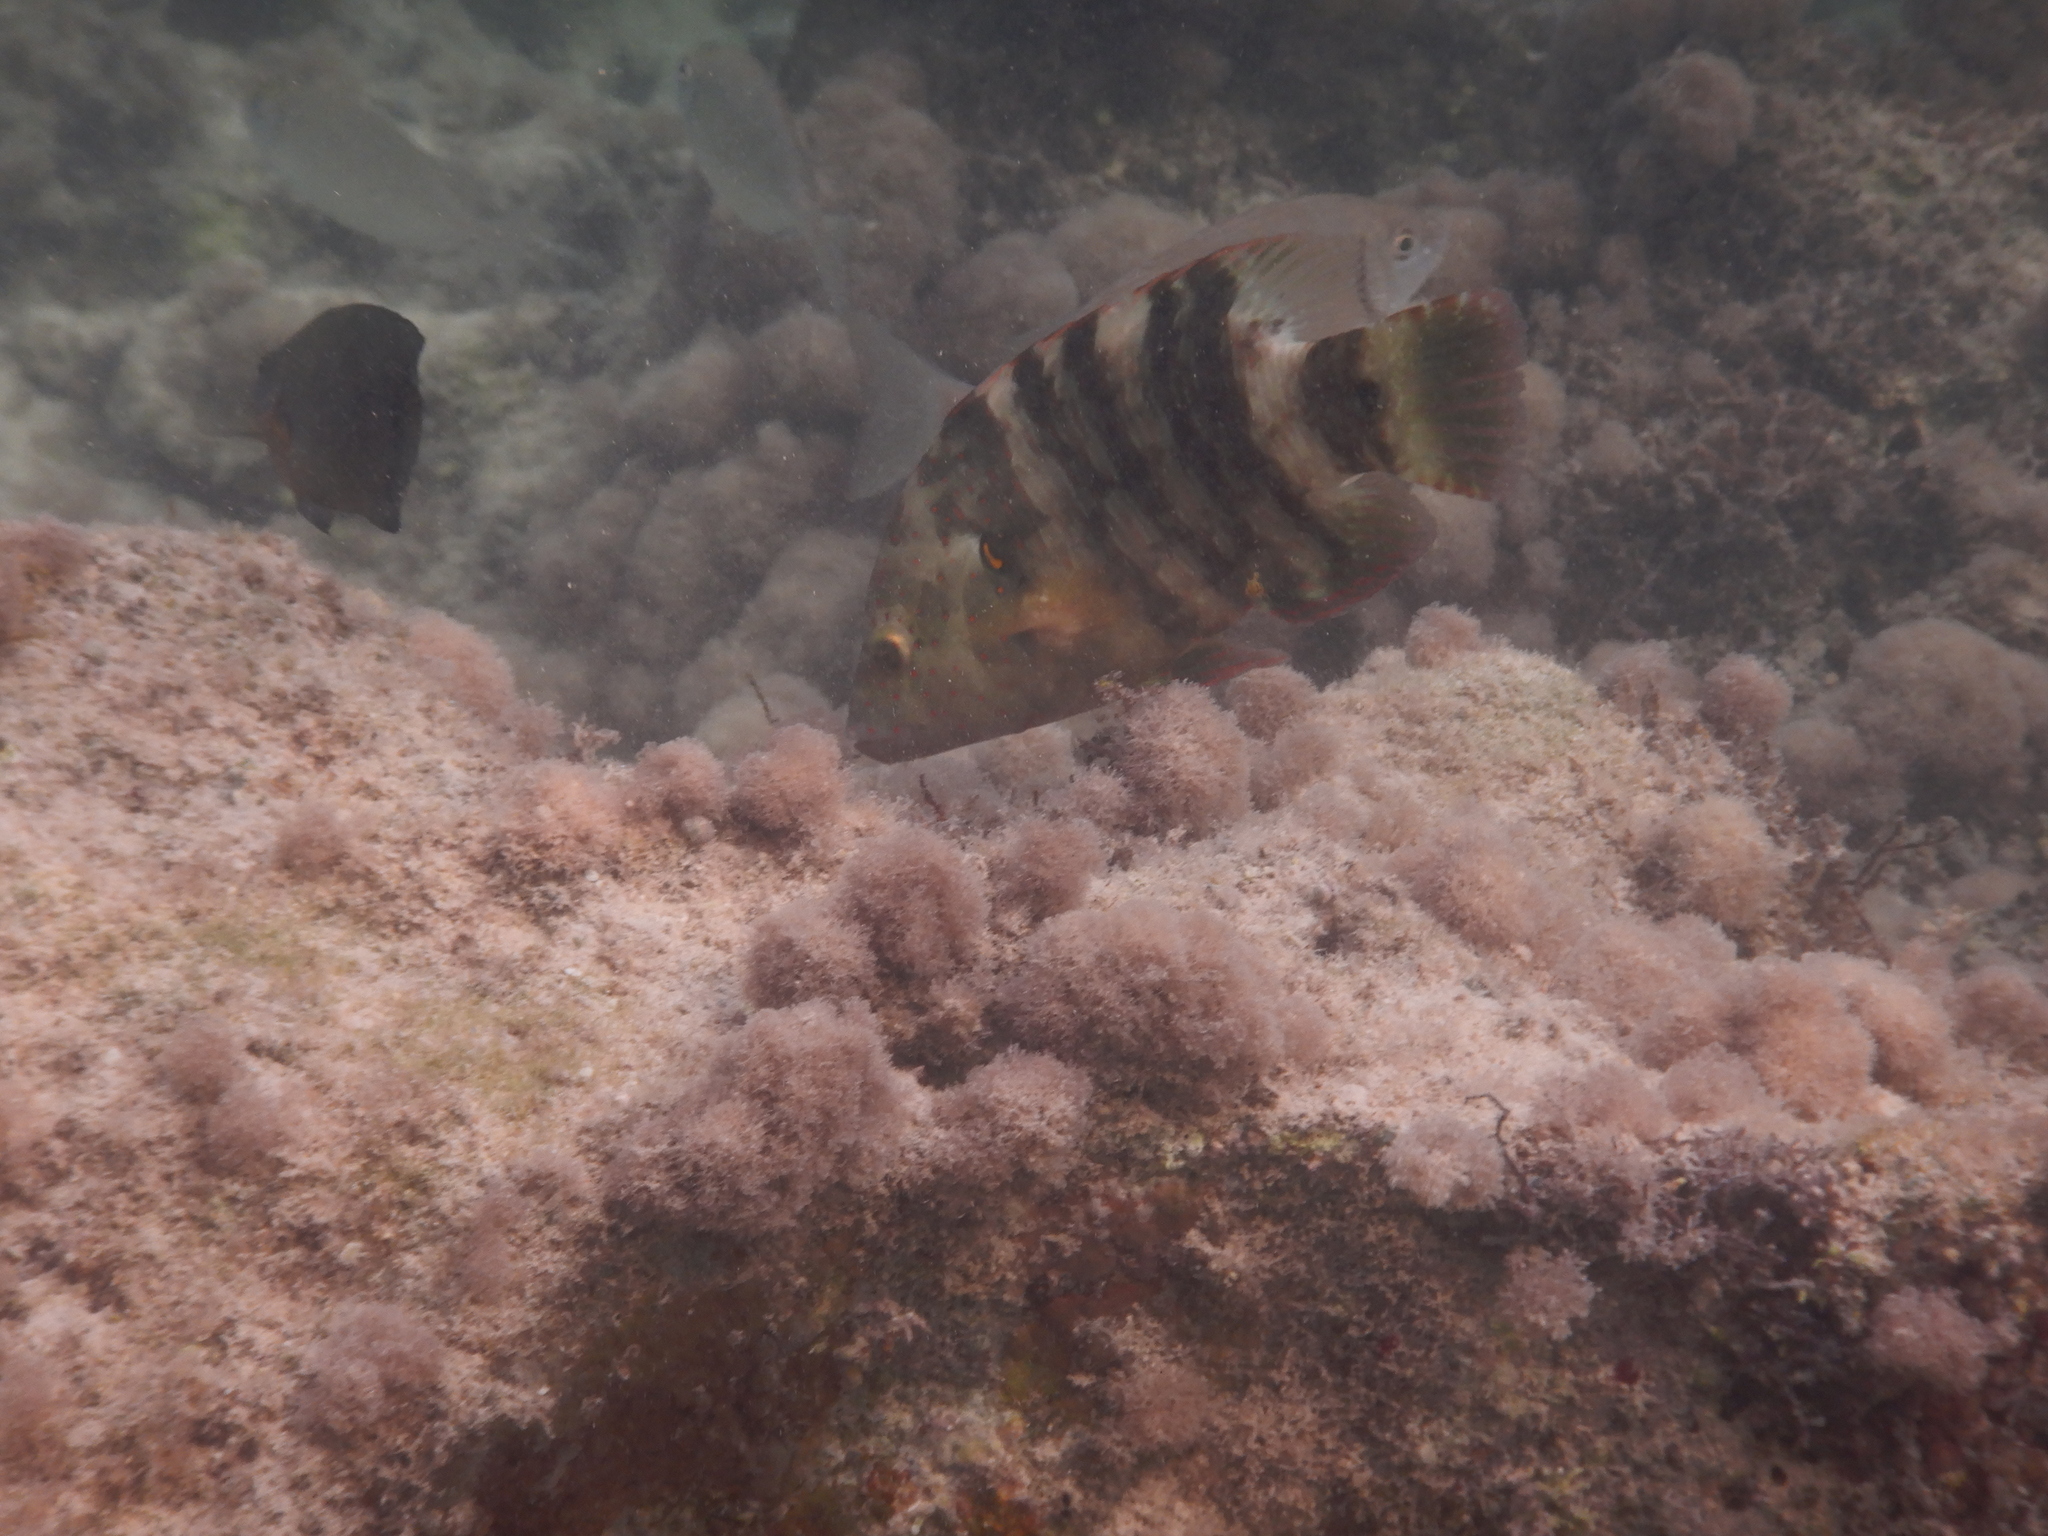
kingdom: Animalia
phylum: Chordata
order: Perciformes
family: Labridae
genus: Cheilinus
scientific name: Cheilinus lunulatus
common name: Broomtail wrasse
